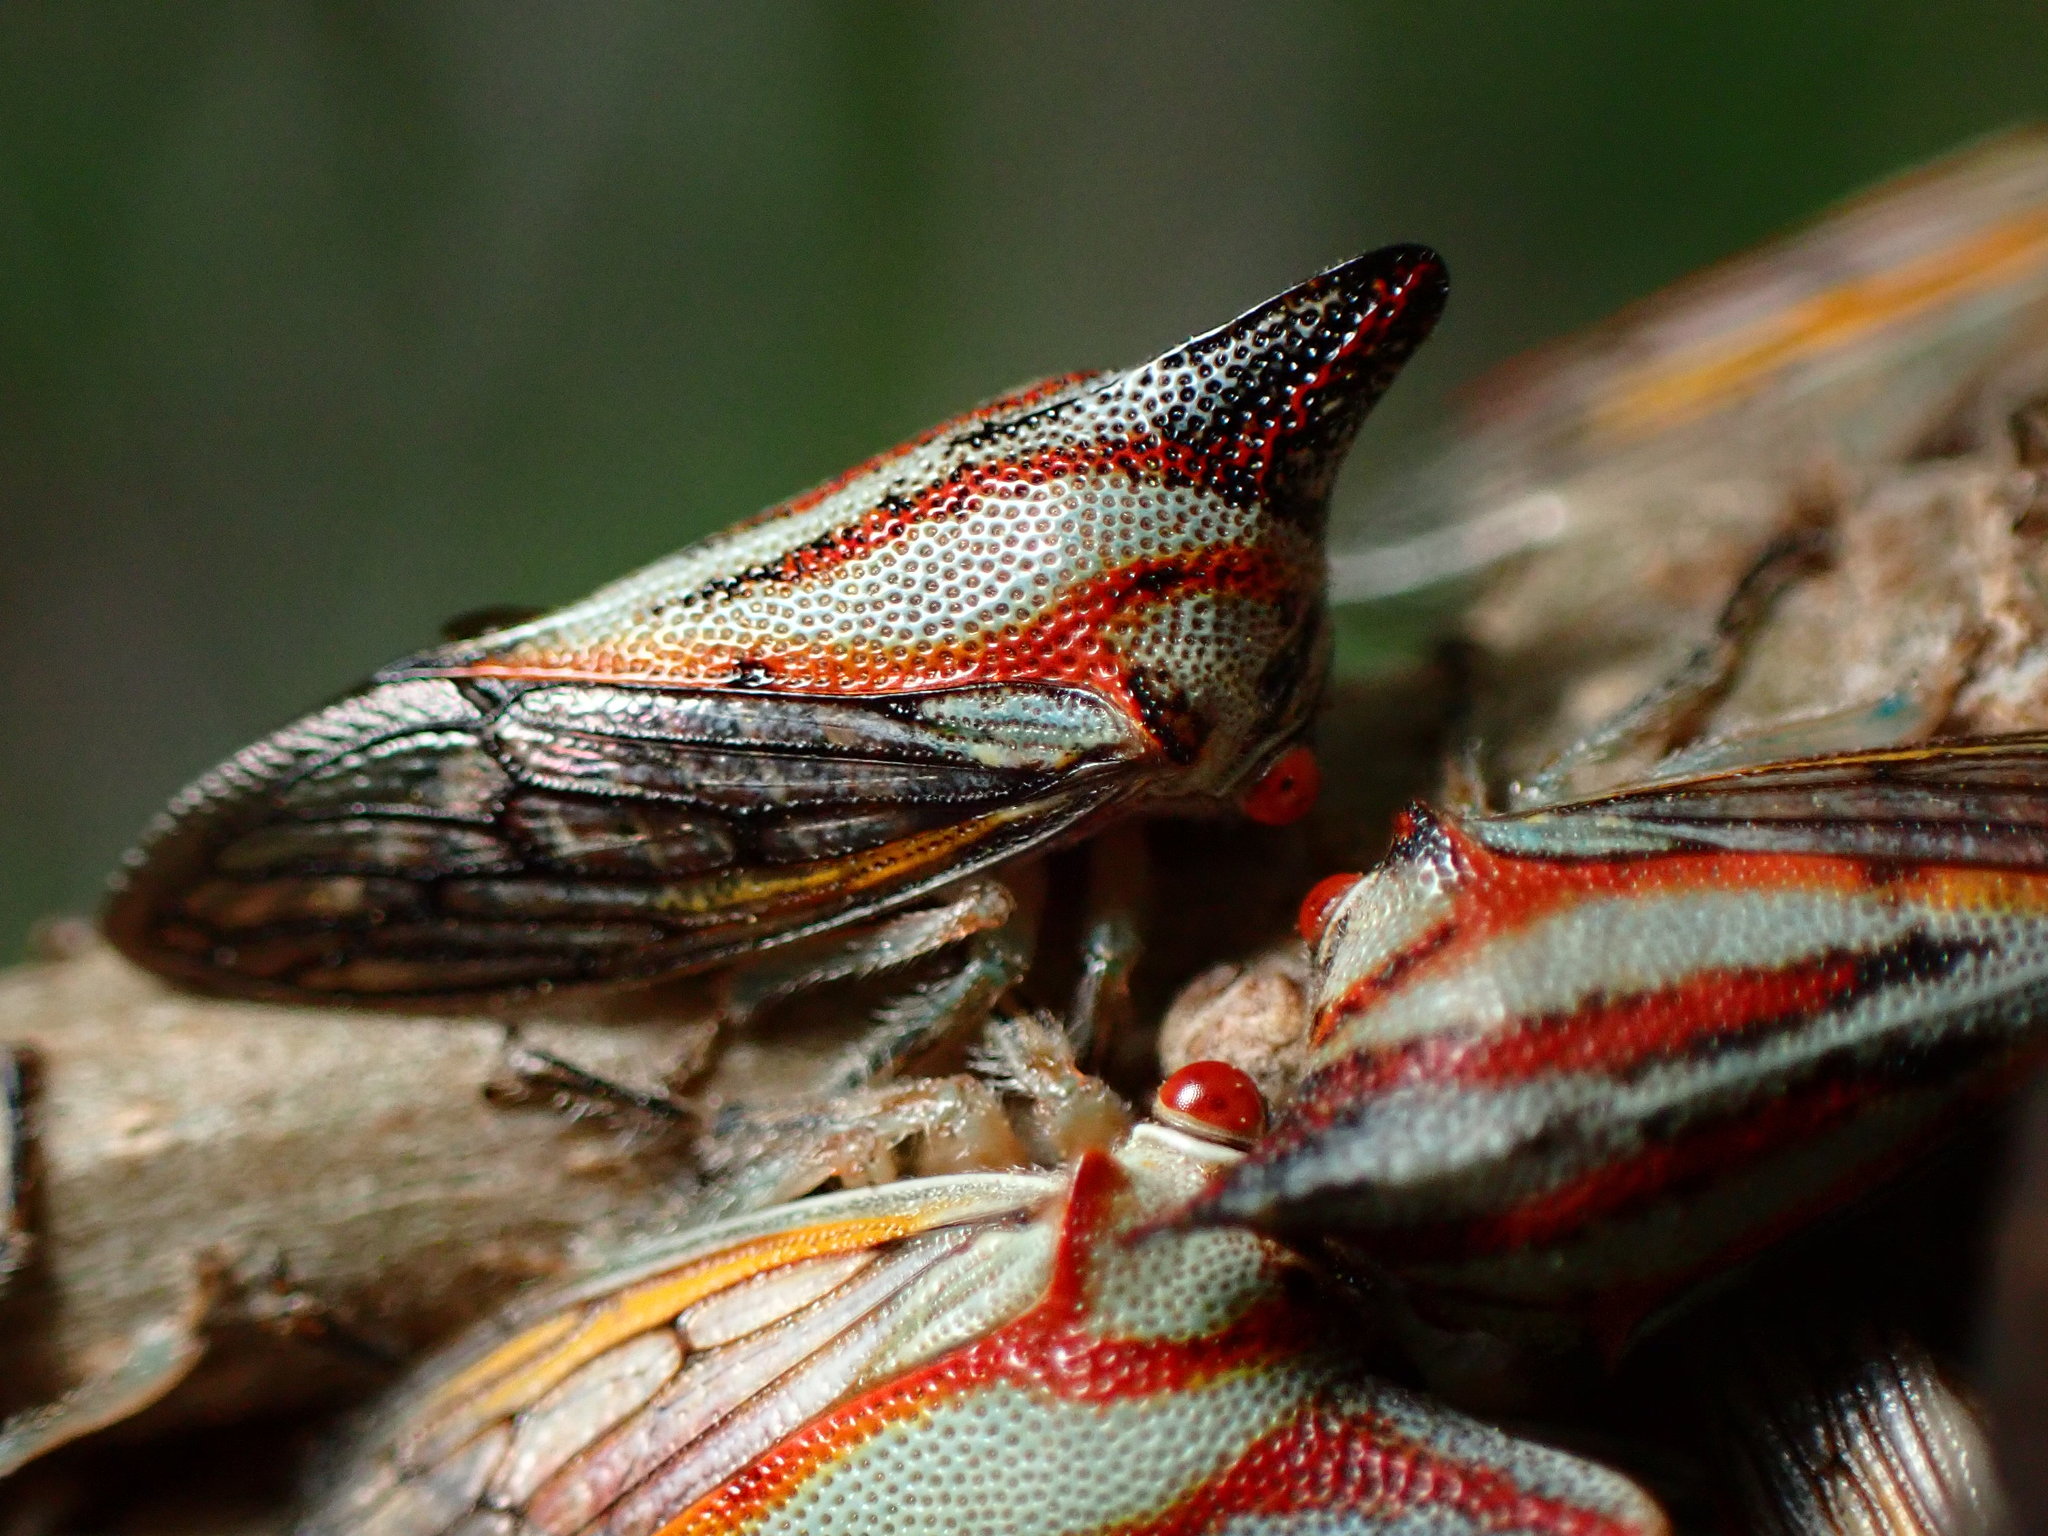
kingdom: Animalia
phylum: Arthropoda
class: Insecta
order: Hemiptera
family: Membracidae
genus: Platycotis
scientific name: Platycotis vittatus
